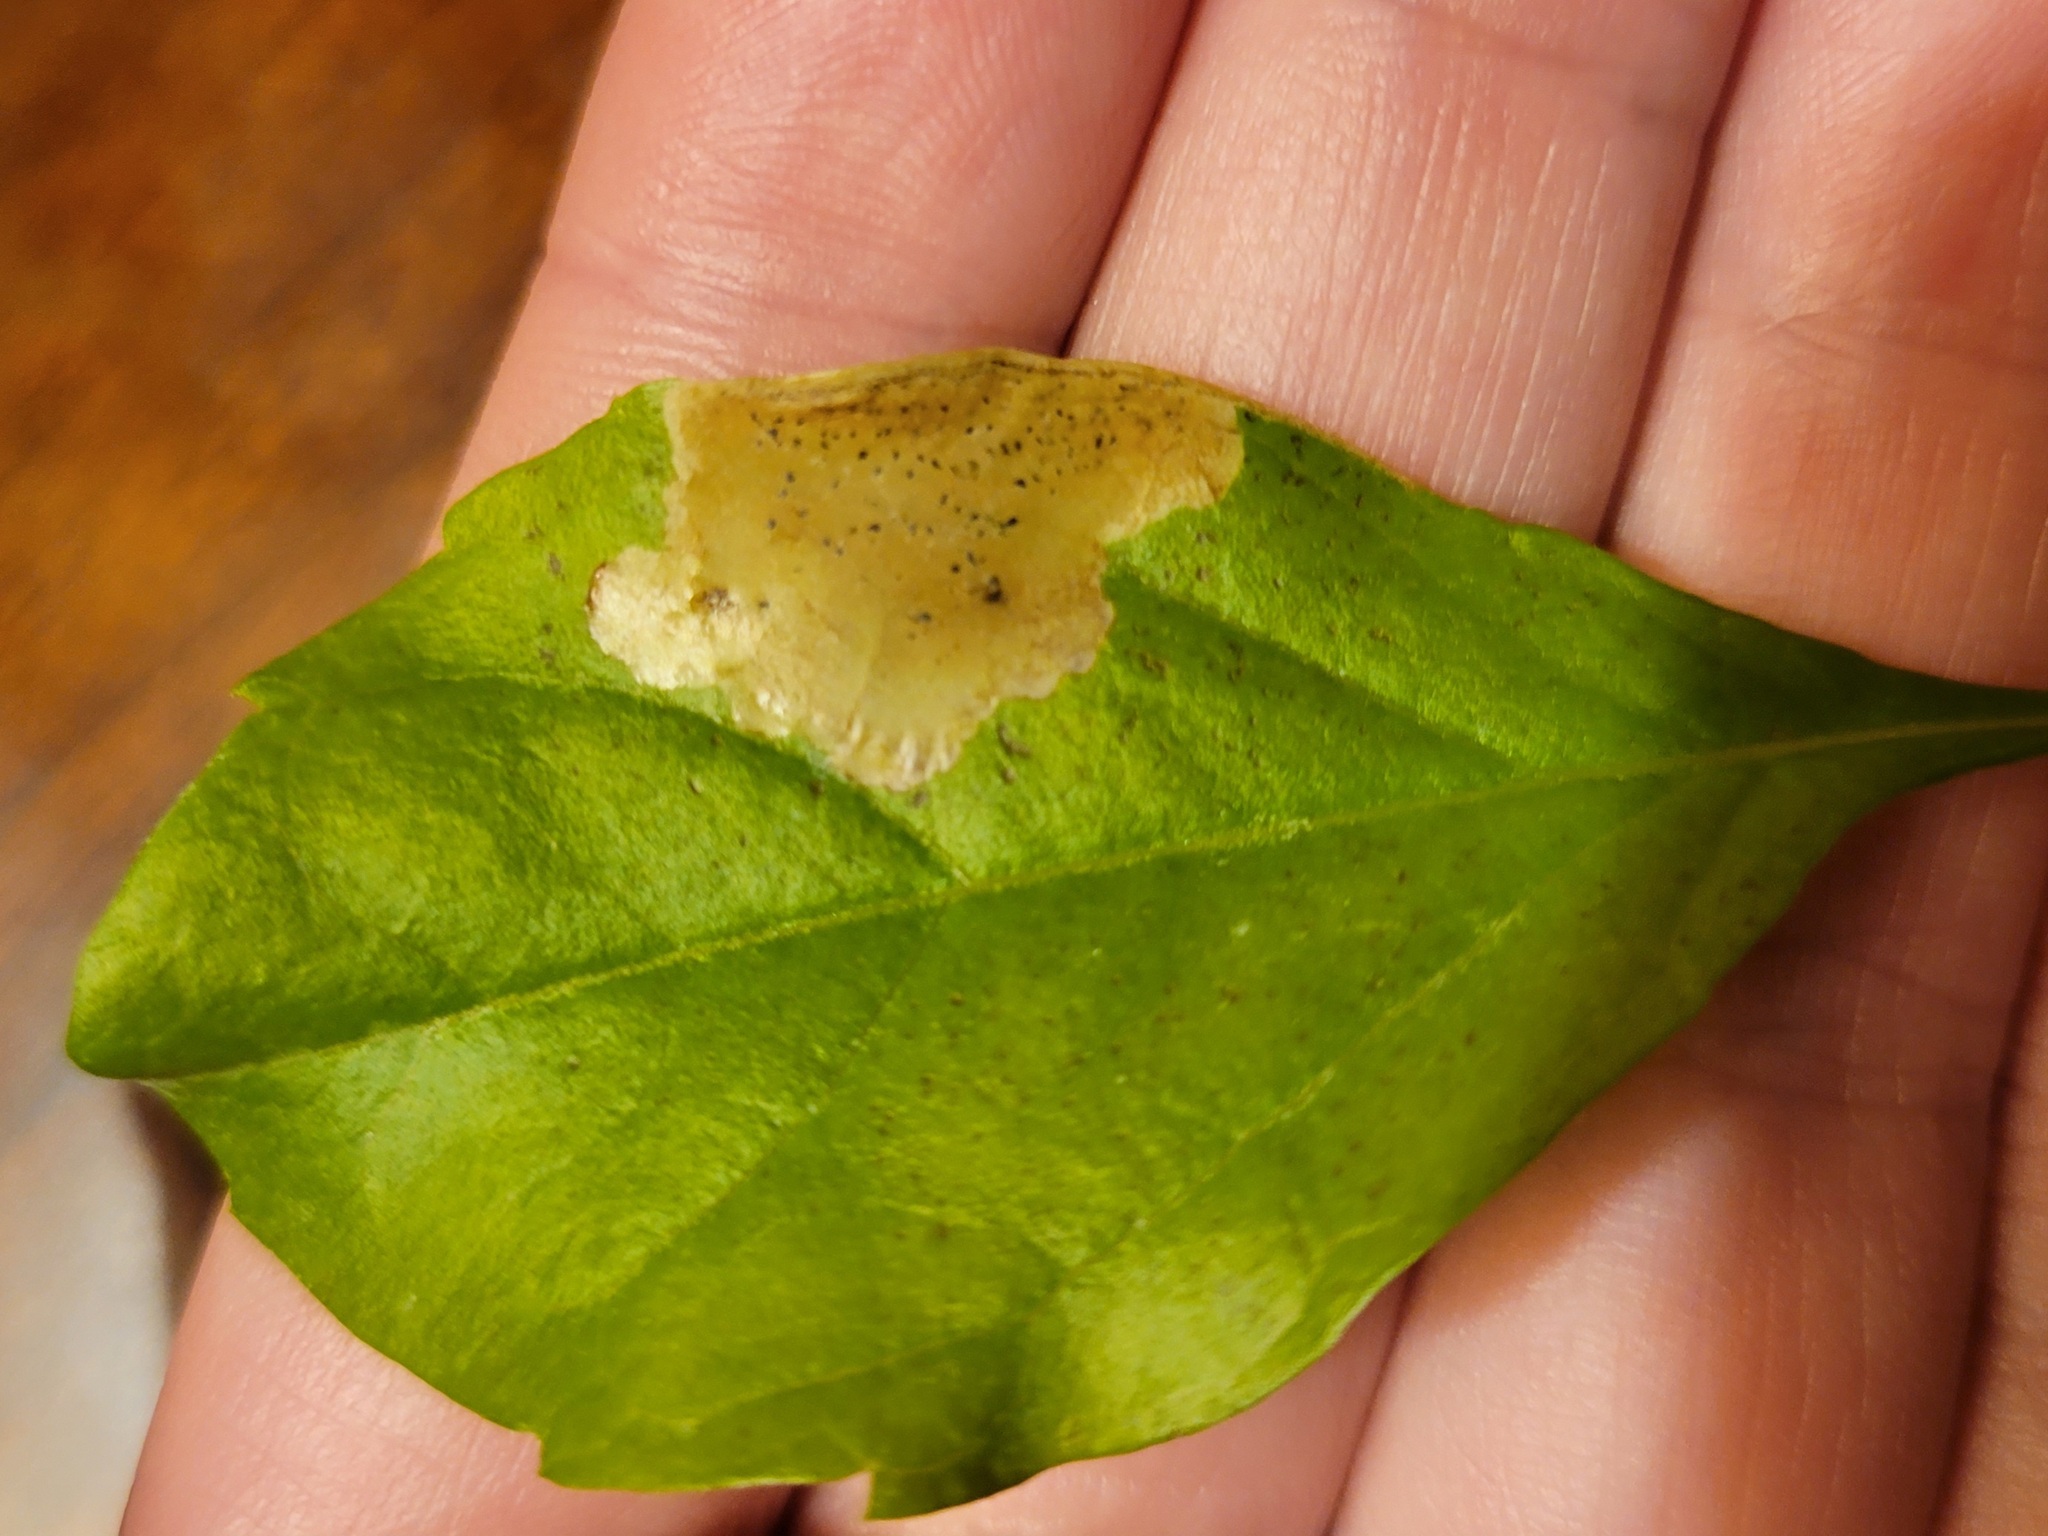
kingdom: Animalia
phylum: Arthropoda
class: Insecta
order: Diptera
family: Agromyzidae
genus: Calycomyza
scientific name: Calycomyza durantae
